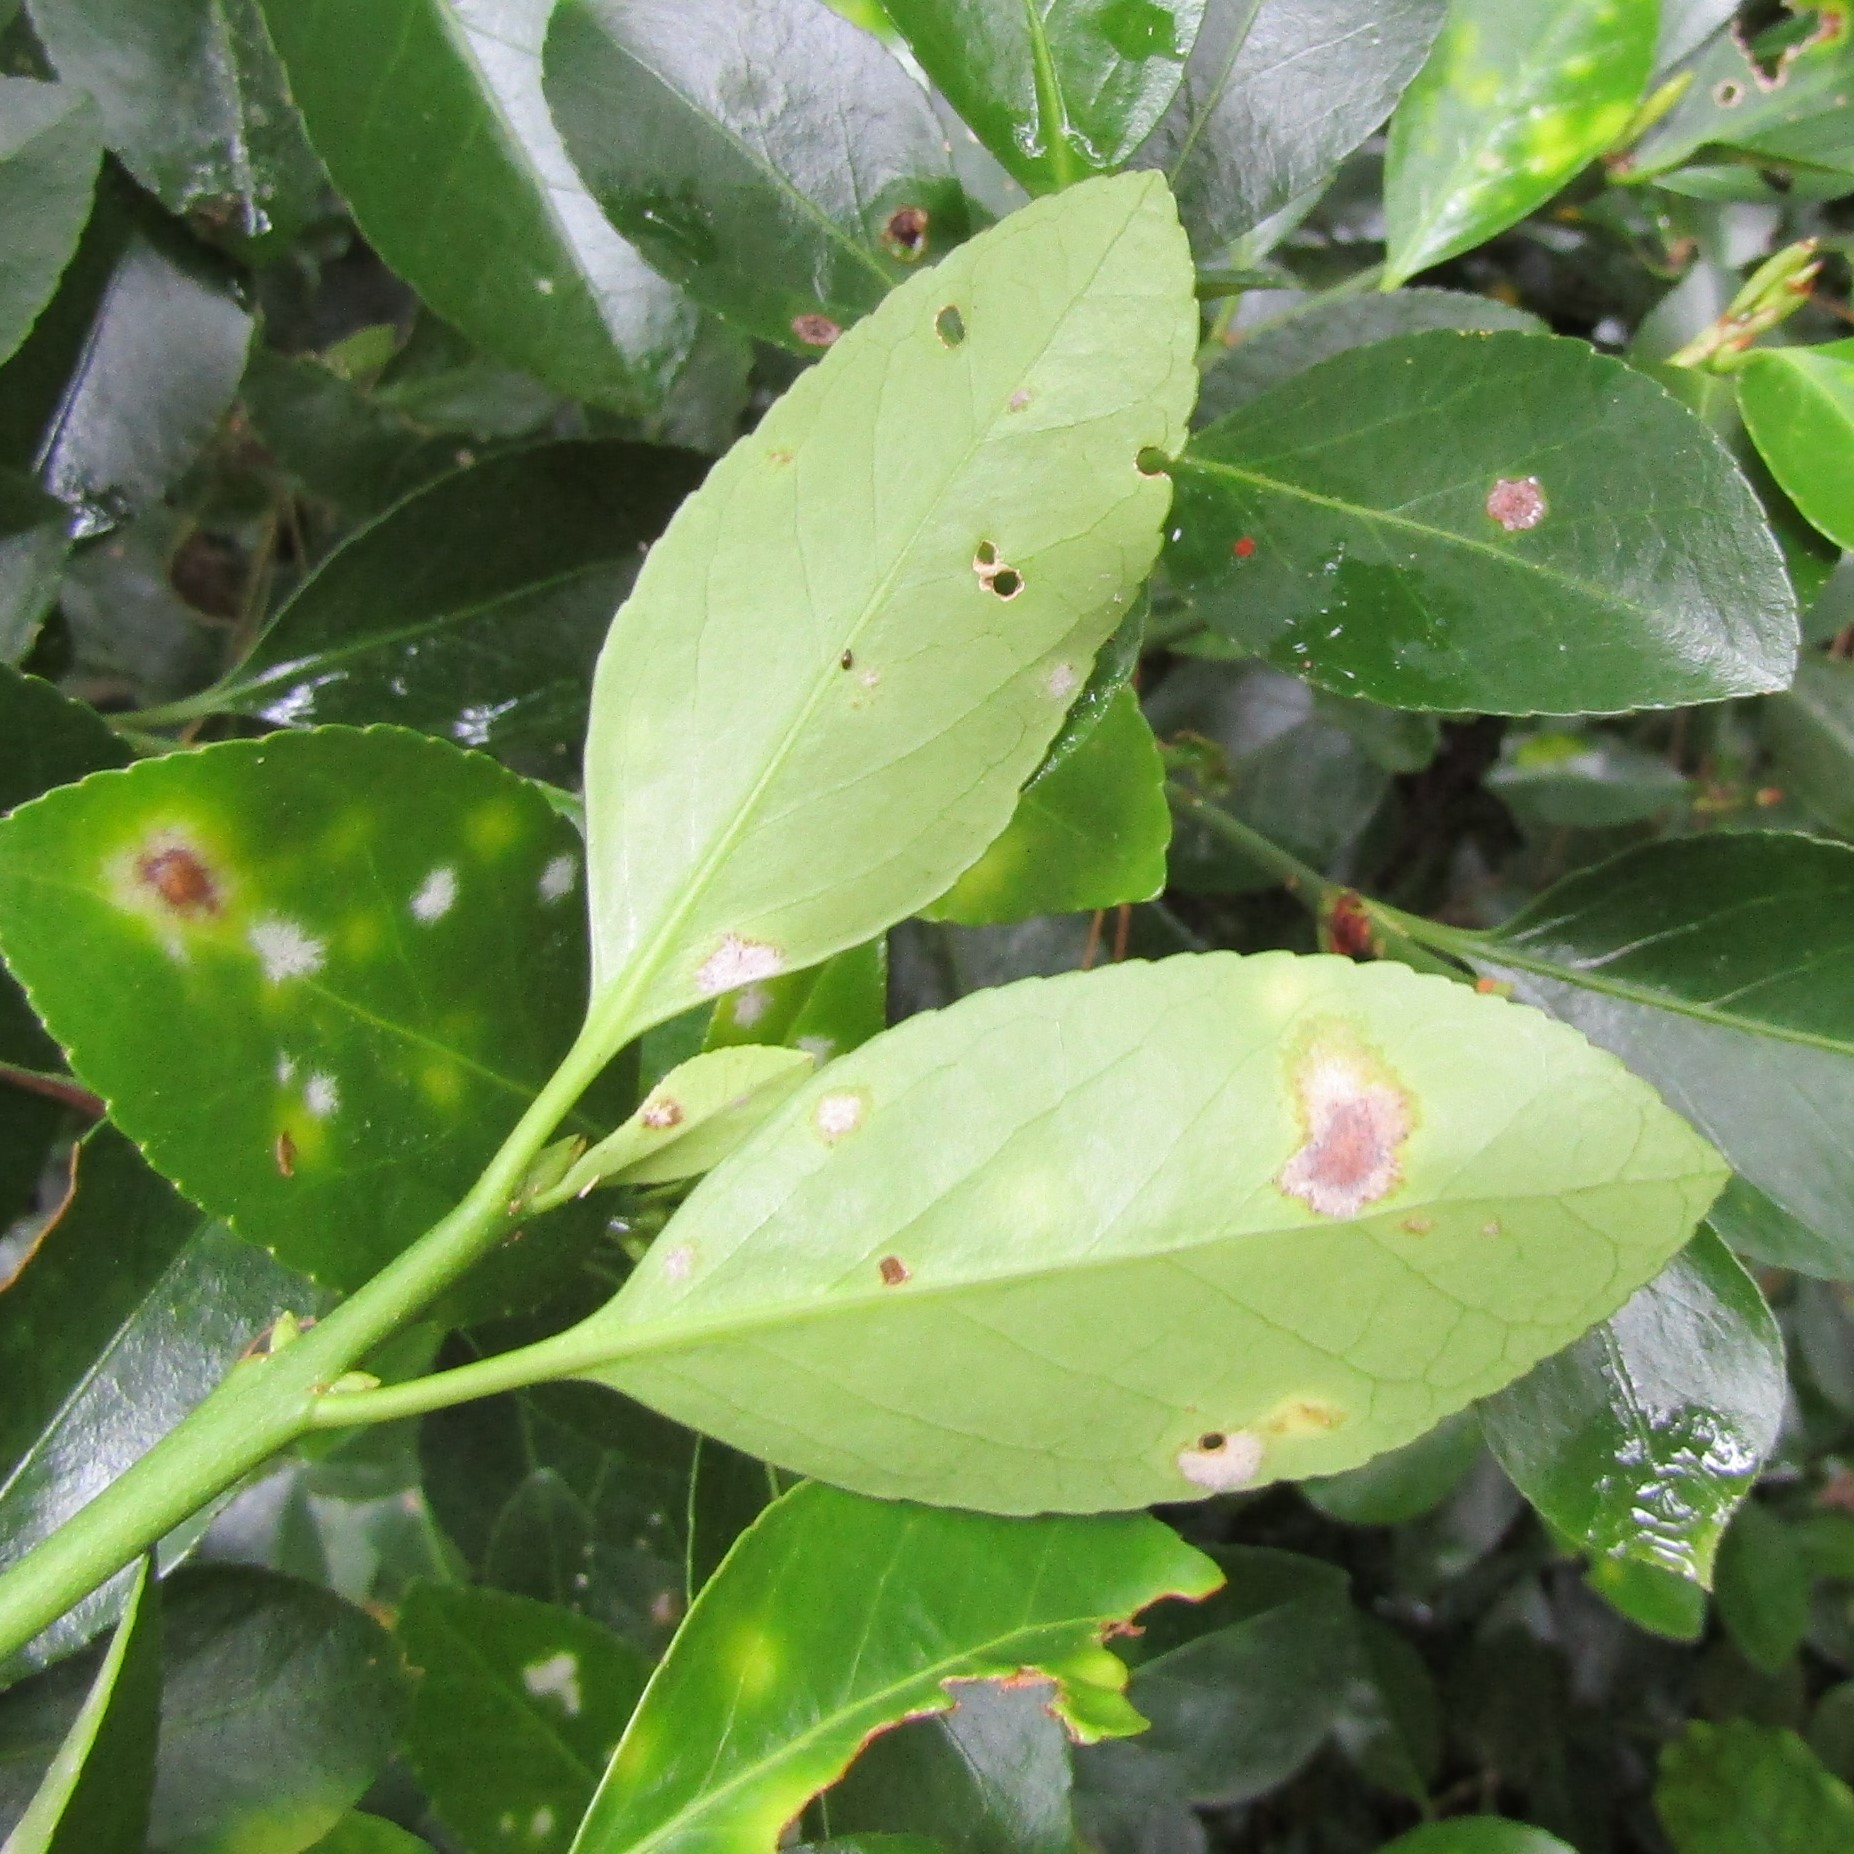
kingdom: Plantae
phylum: Tracheophyta
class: Magnoliopsida
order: Celastrales
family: Celastraceae
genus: Euonymus
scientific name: Euonymus japonicus
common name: Japanese spindletree
